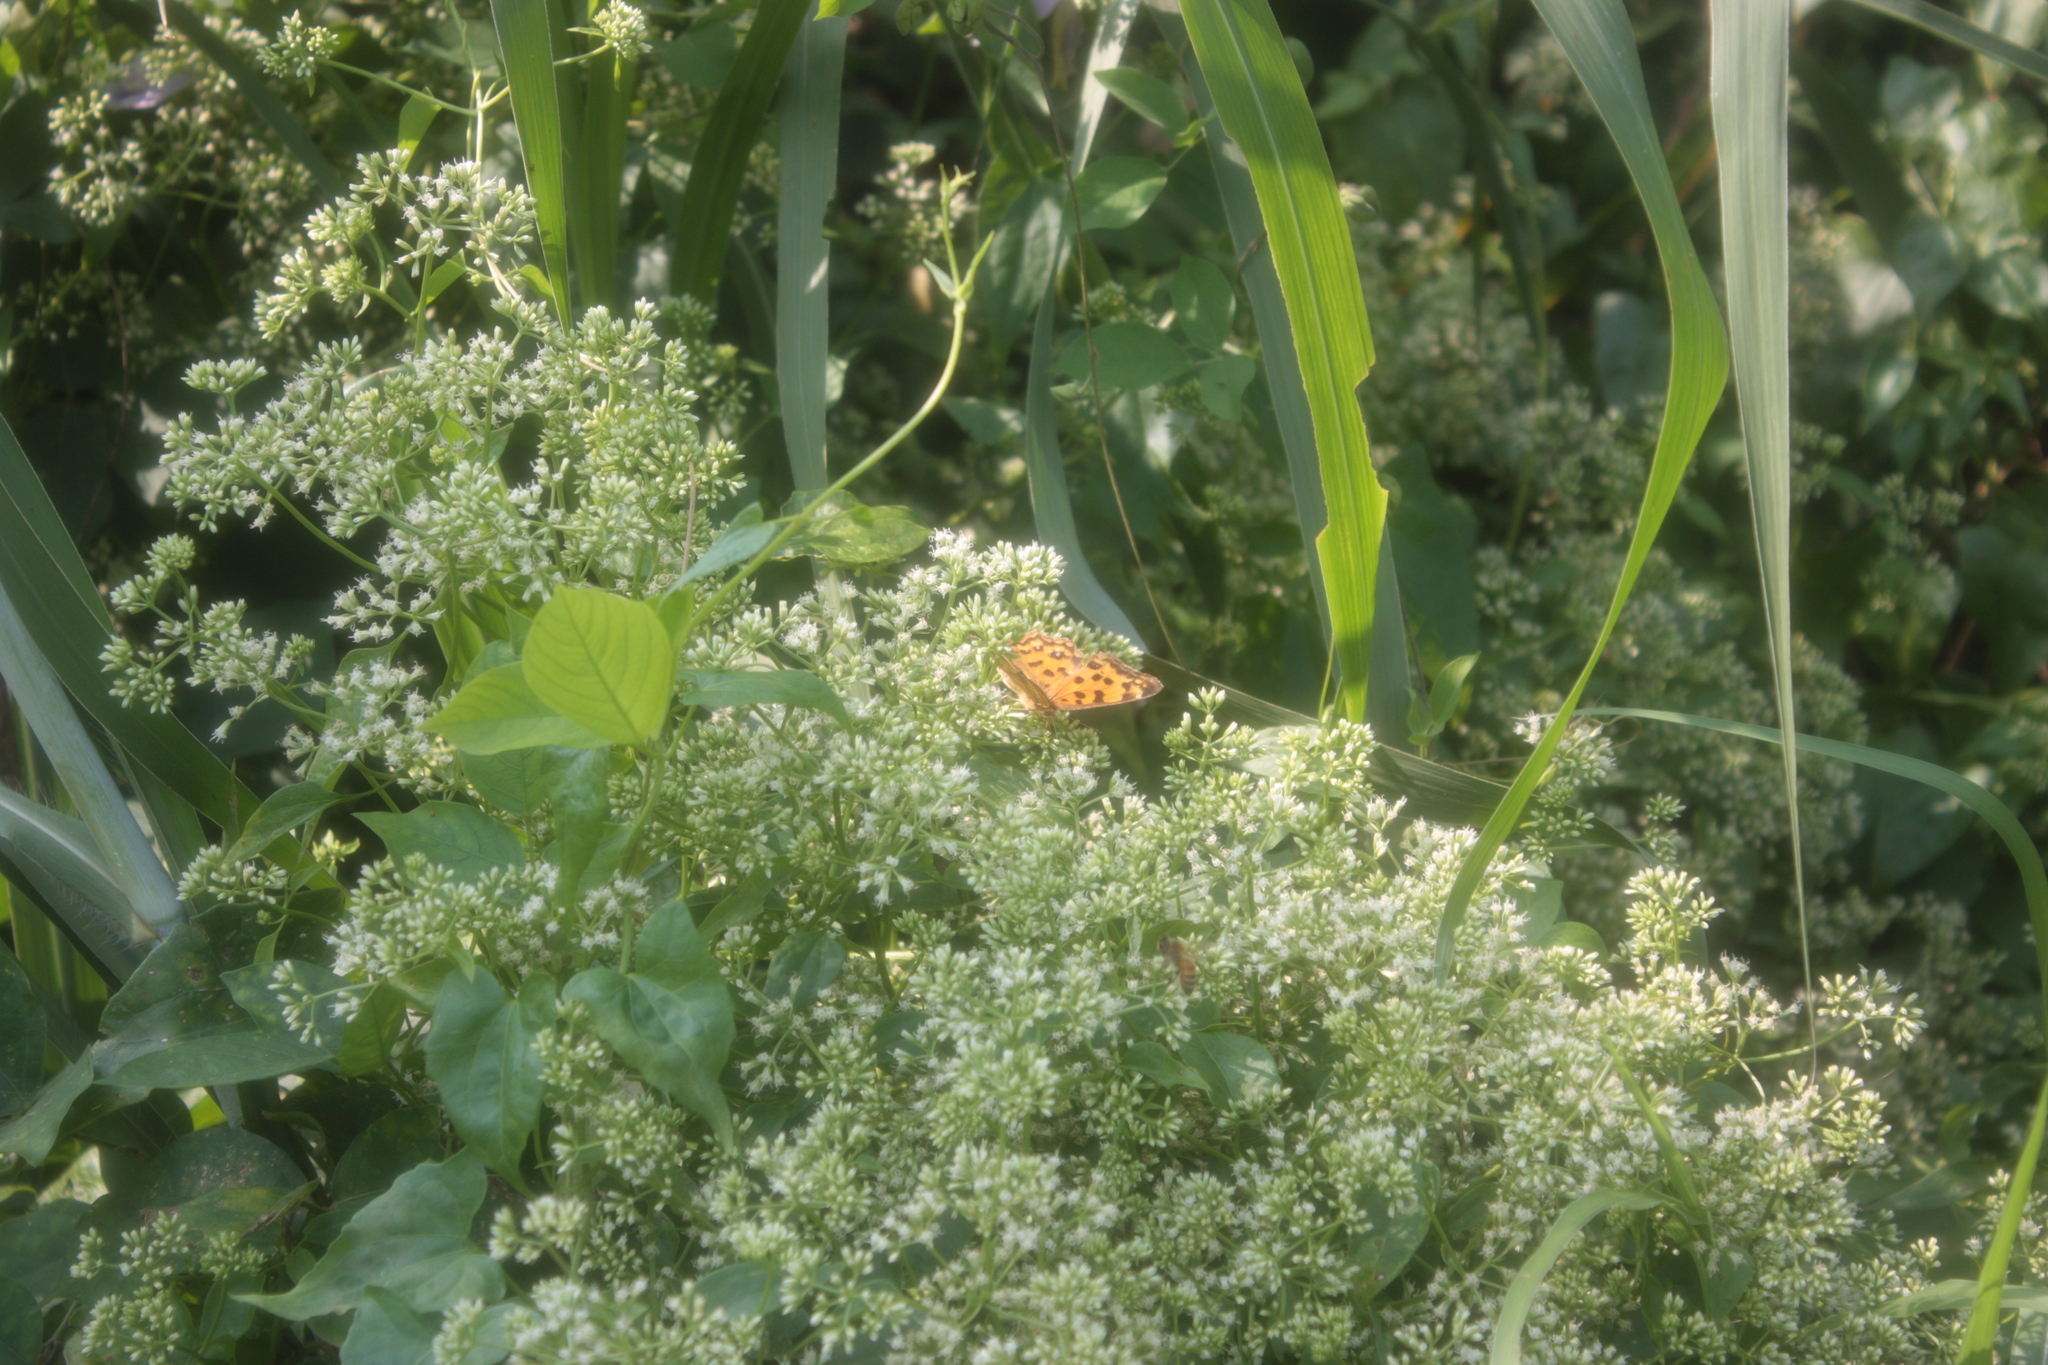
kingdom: Animalia
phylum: Arthropoda
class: Insecta
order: Lepidoptera
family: Nymphalidae
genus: Polygonia
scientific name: Polygonia c-aureum
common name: Asian comma
